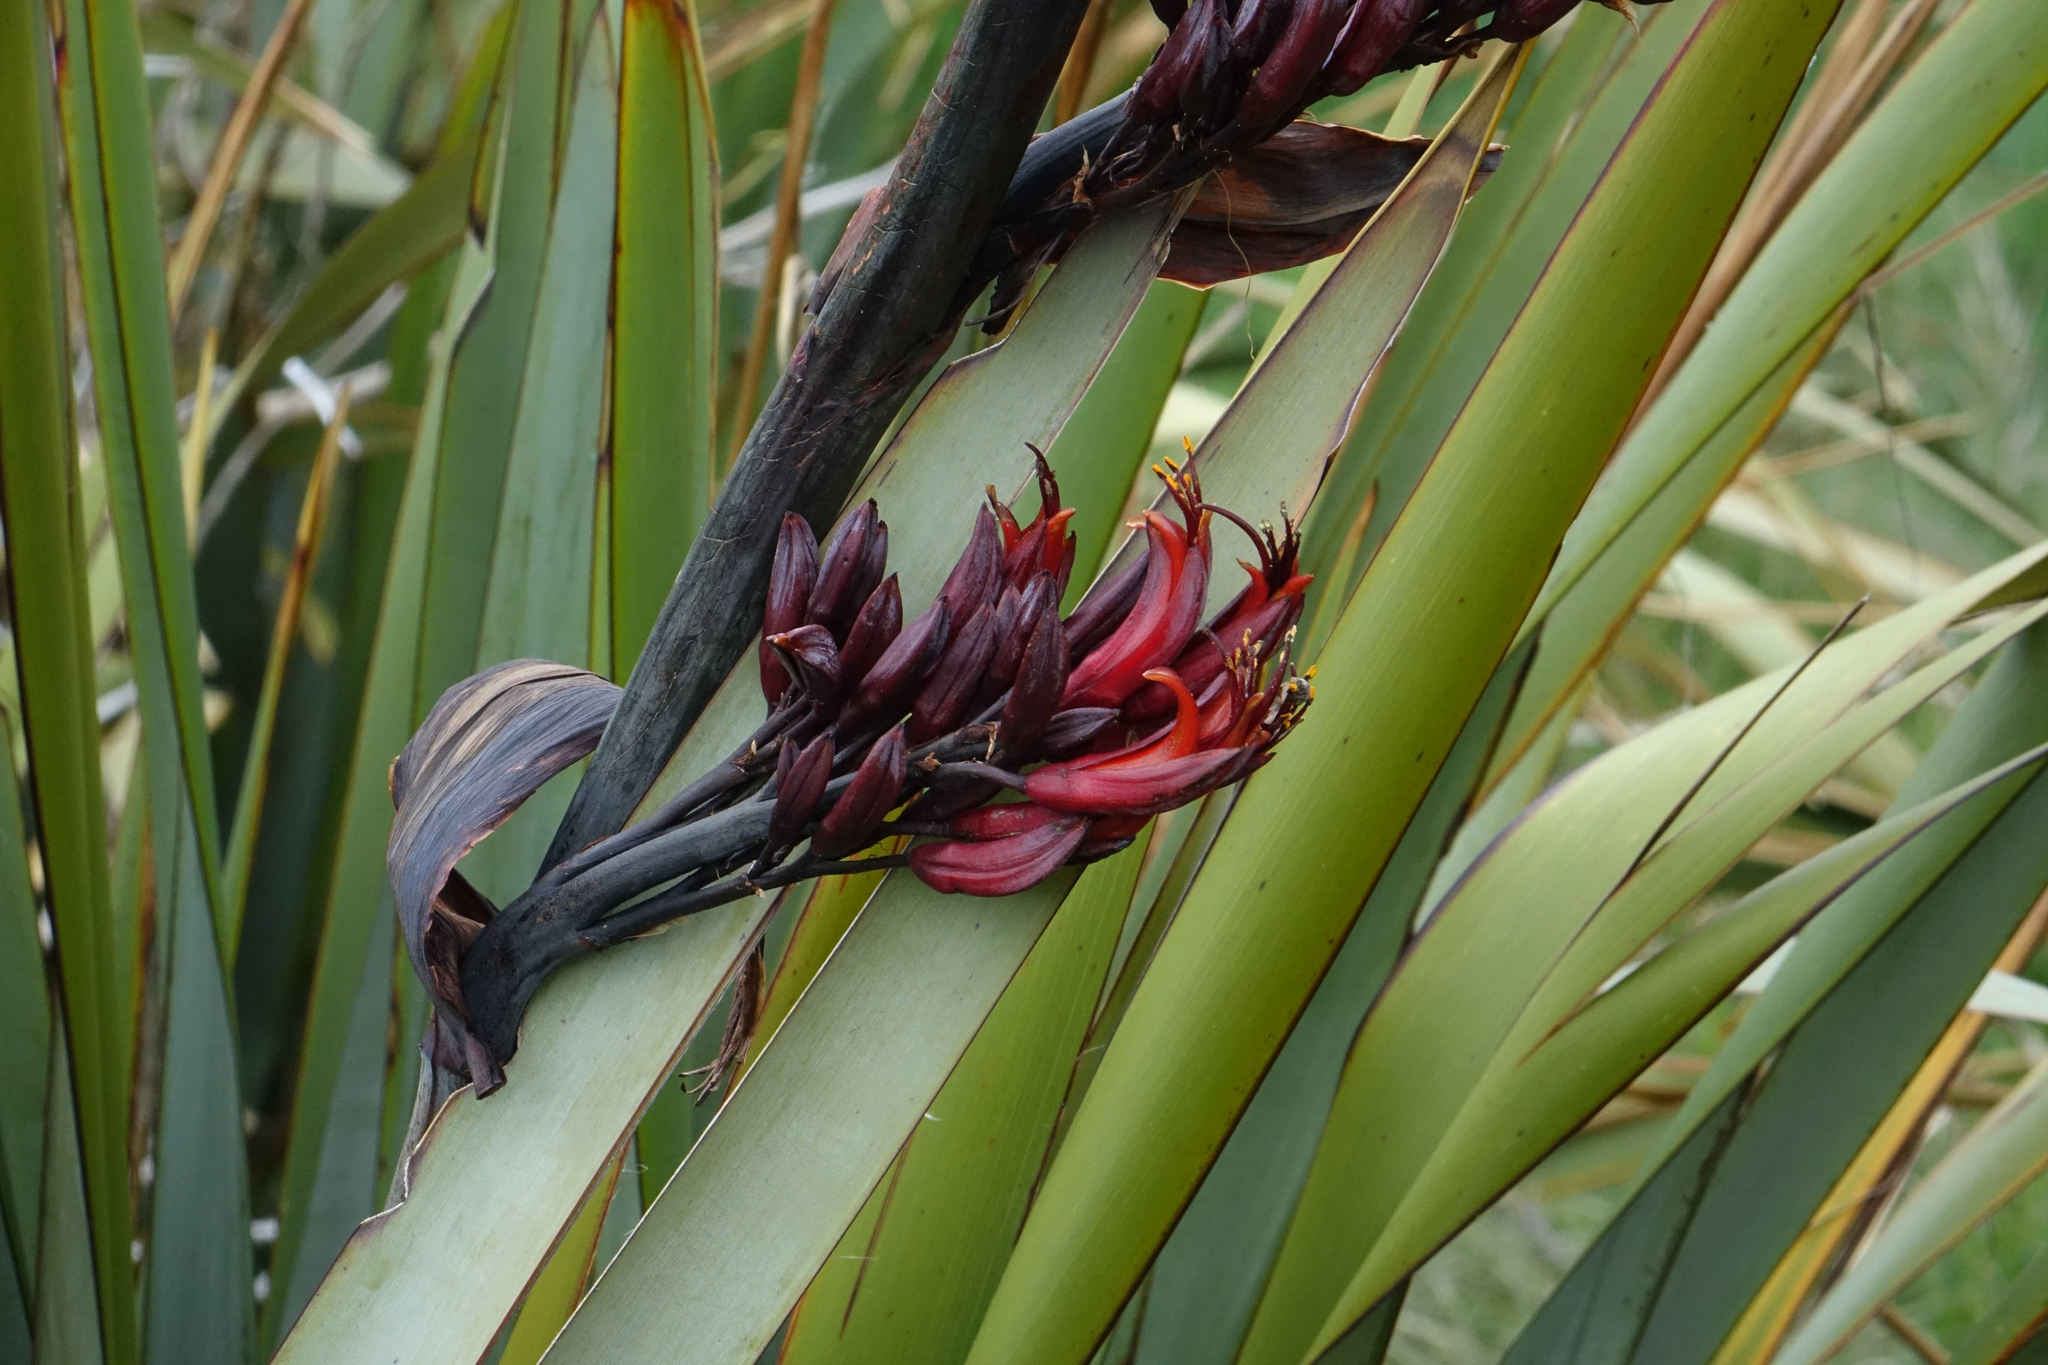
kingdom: Plantae
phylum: Tracheophyta
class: Liliopsida
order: Asparagales
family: Asphodelaceae
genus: Phormium
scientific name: Phormium tenax
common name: New zealand flax
